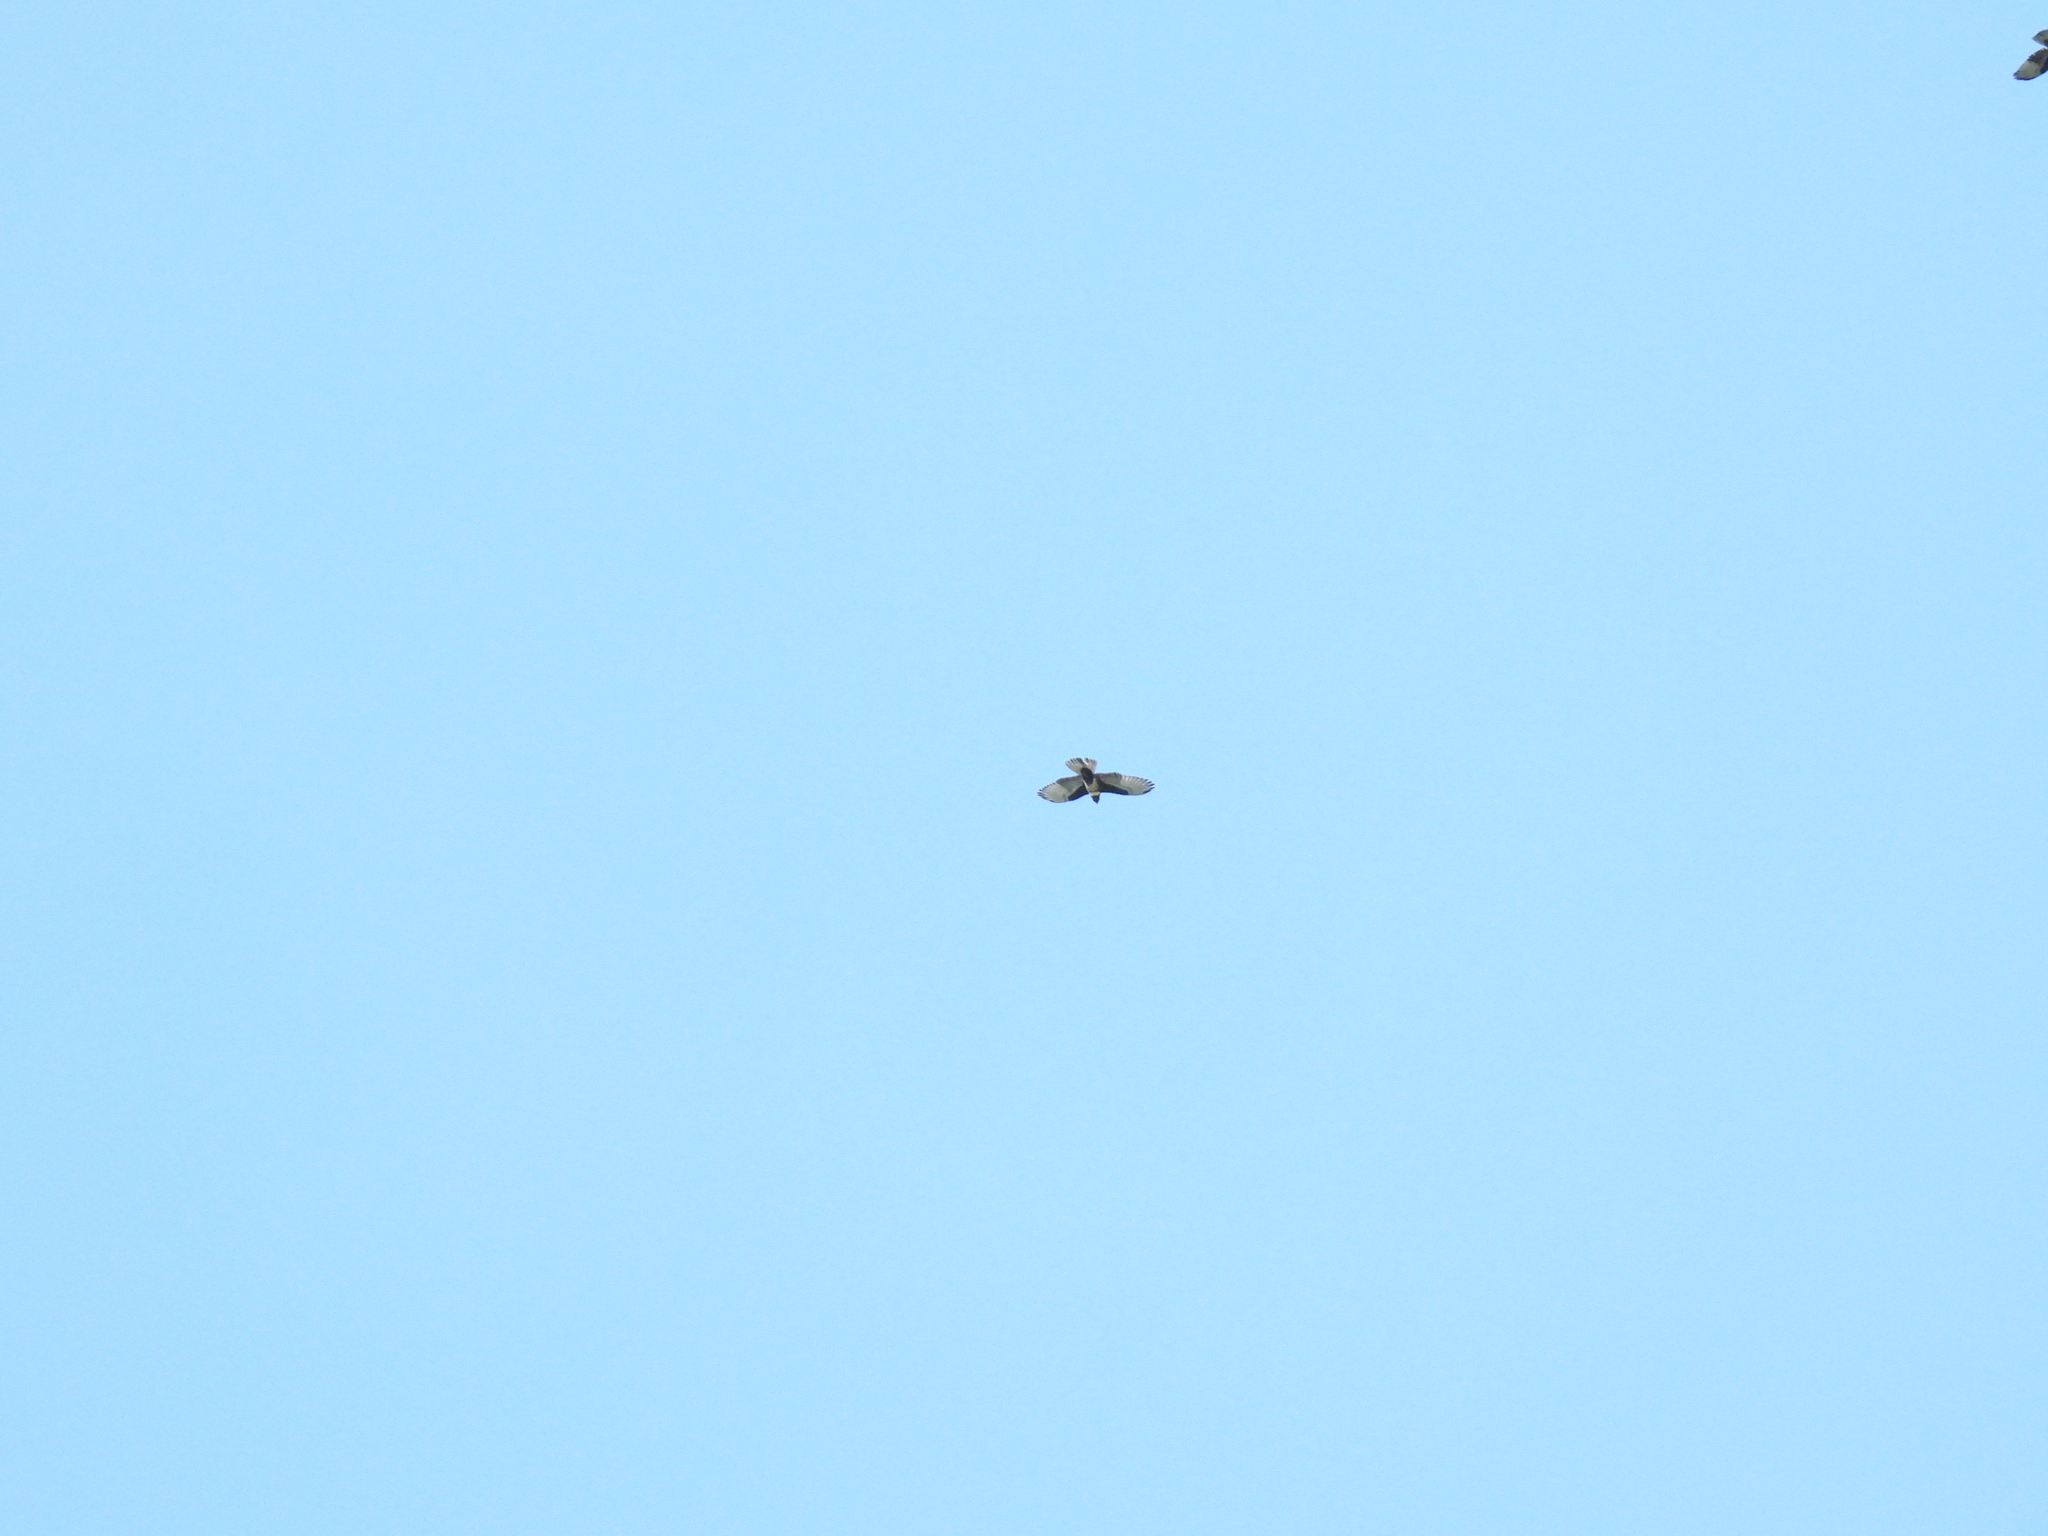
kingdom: Animalia
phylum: Chordata
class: Aves
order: Accipitriformes
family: Accipitridae
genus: Aviceda
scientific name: Aviceda leuphotes
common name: Black baza
